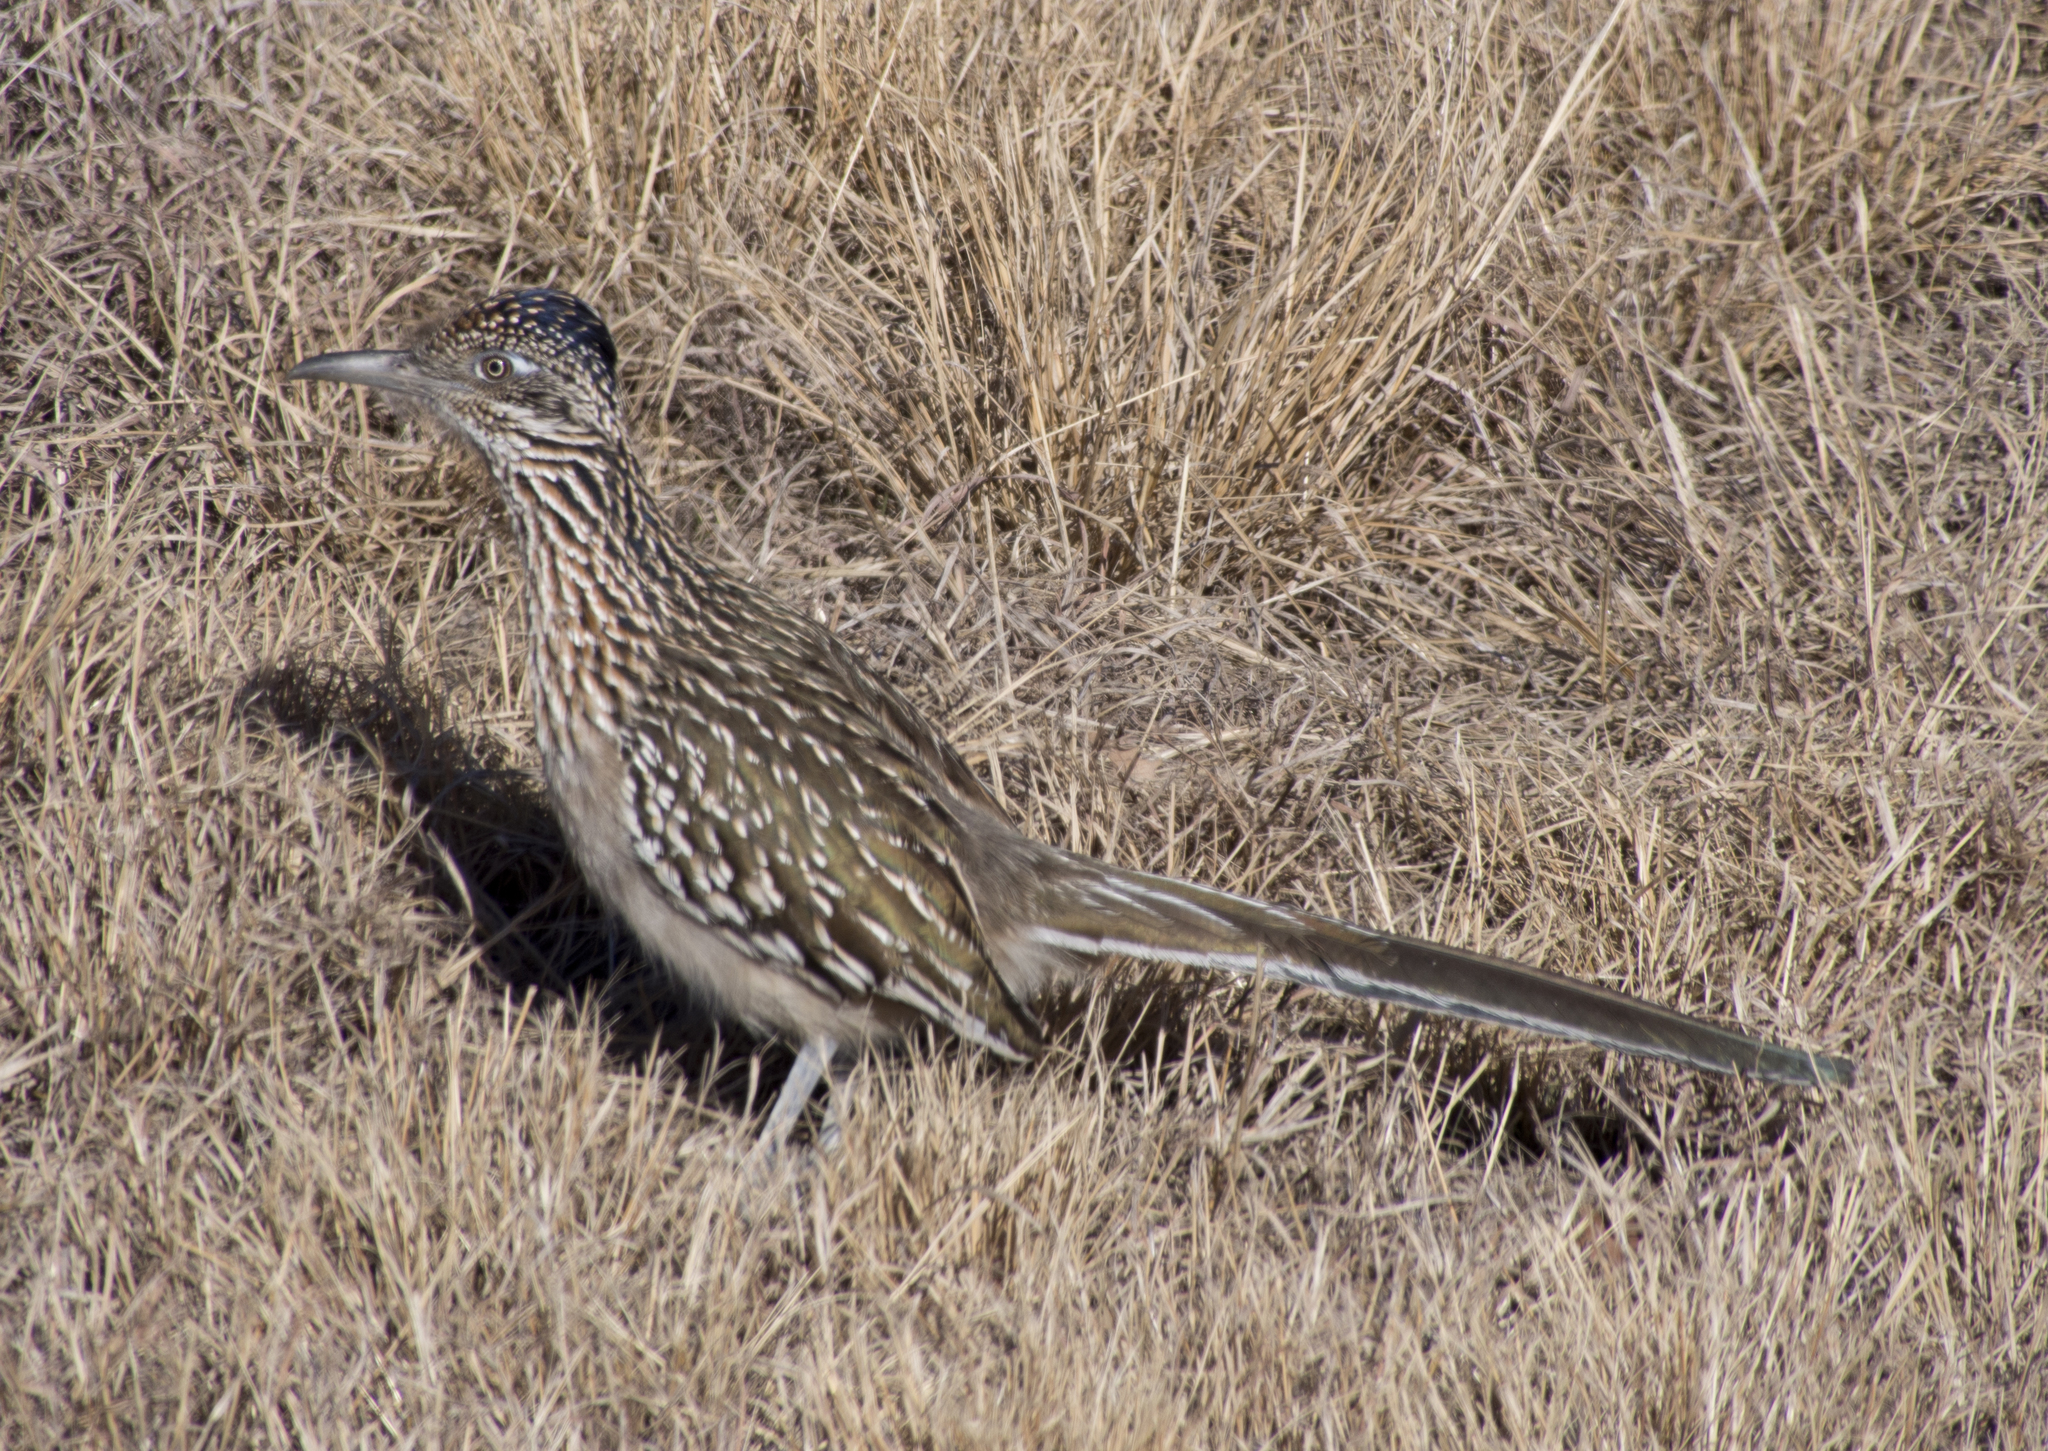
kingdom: Animalia
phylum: Chordata
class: Aves
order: Cuculiformes
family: Cuculidae
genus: Geococcyx
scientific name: Geococcyx californianus
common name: Greater roadrunner
